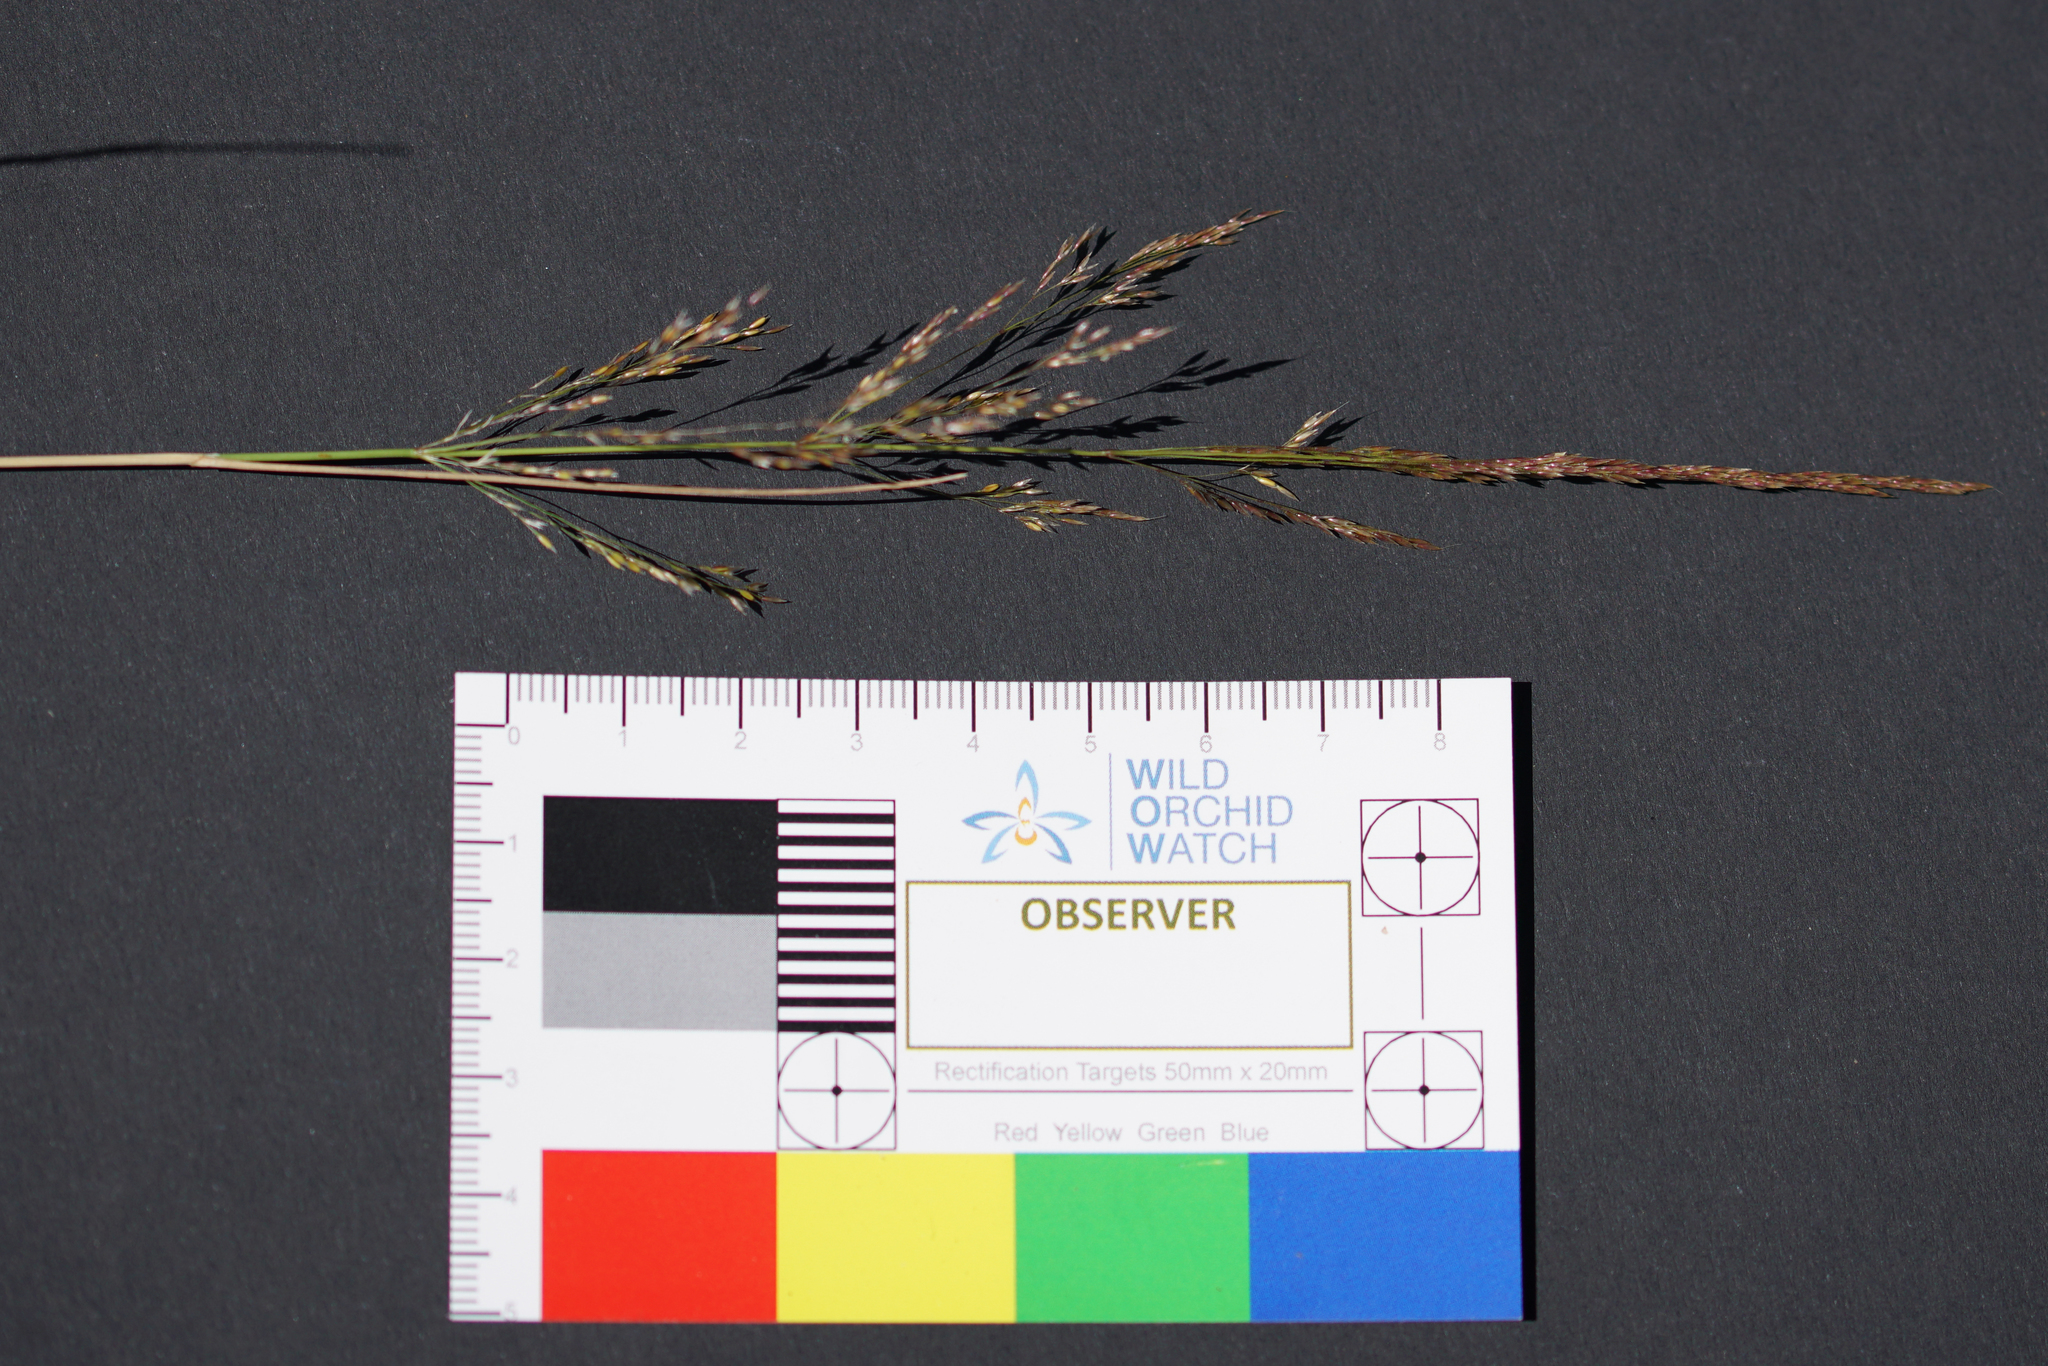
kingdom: Plantae
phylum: Tracheophyta
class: Liliopsida
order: Poales
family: Poaceae
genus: Agrostis
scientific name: Agrostis capillaris
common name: Colonial bentgrass
